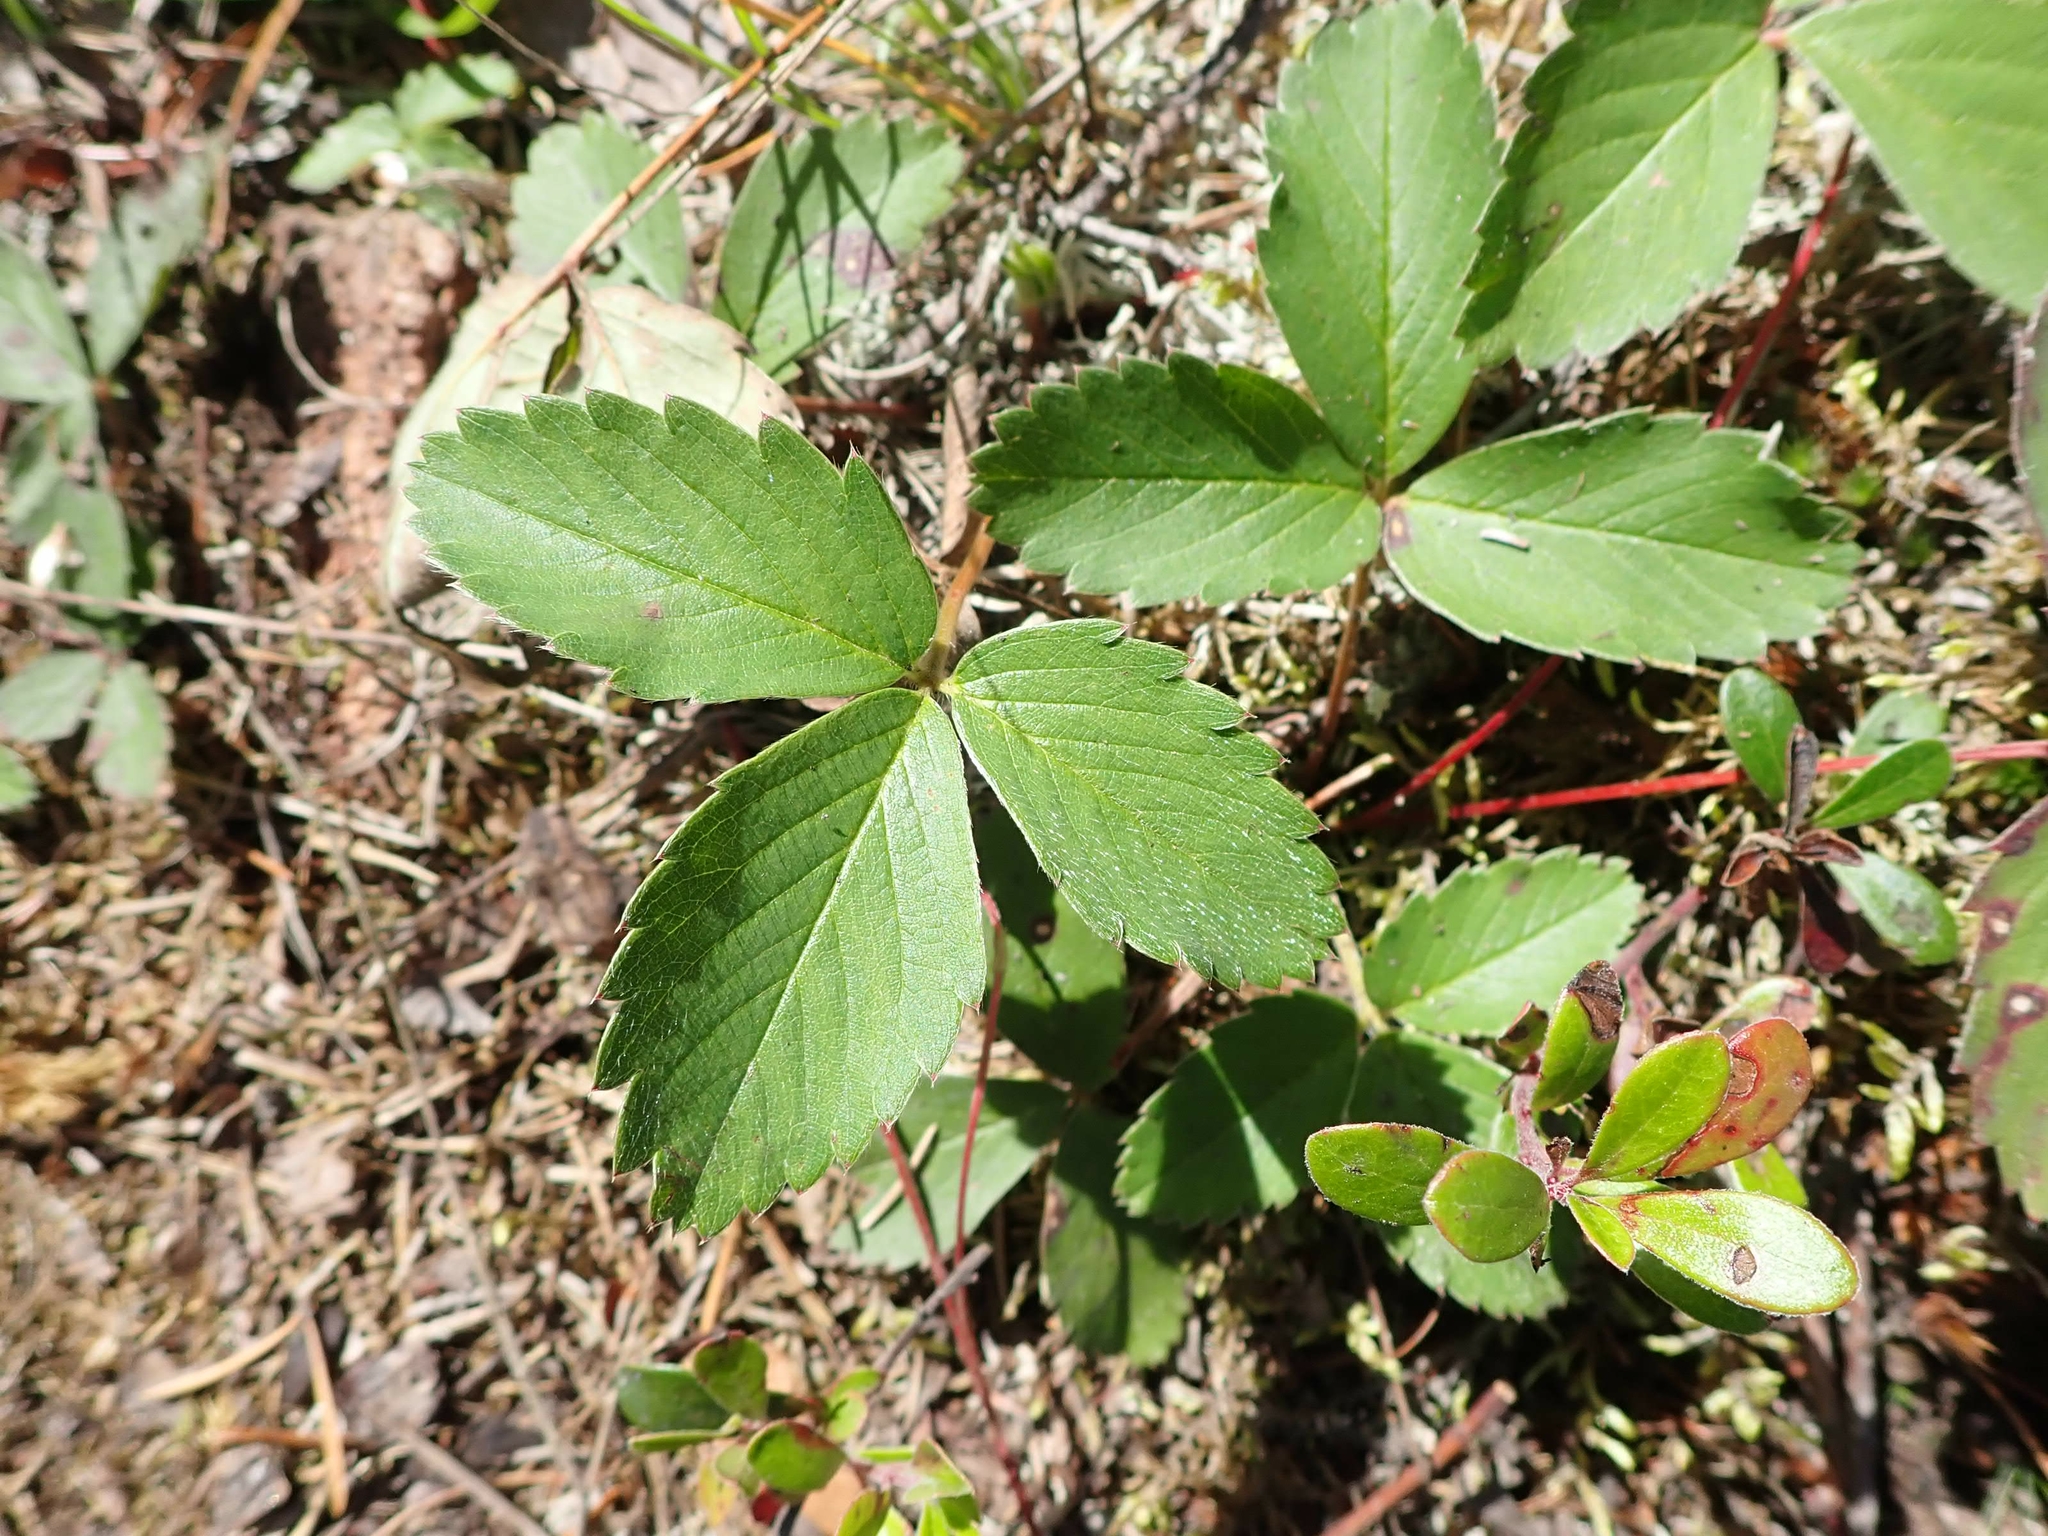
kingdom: Plantae
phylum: Tracheophyta
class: Magnoliopsida
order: Rosales
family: Rosaceae
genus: Fragaria
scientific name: Fragaria virginiana
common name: Thickleaved wild strawberry
